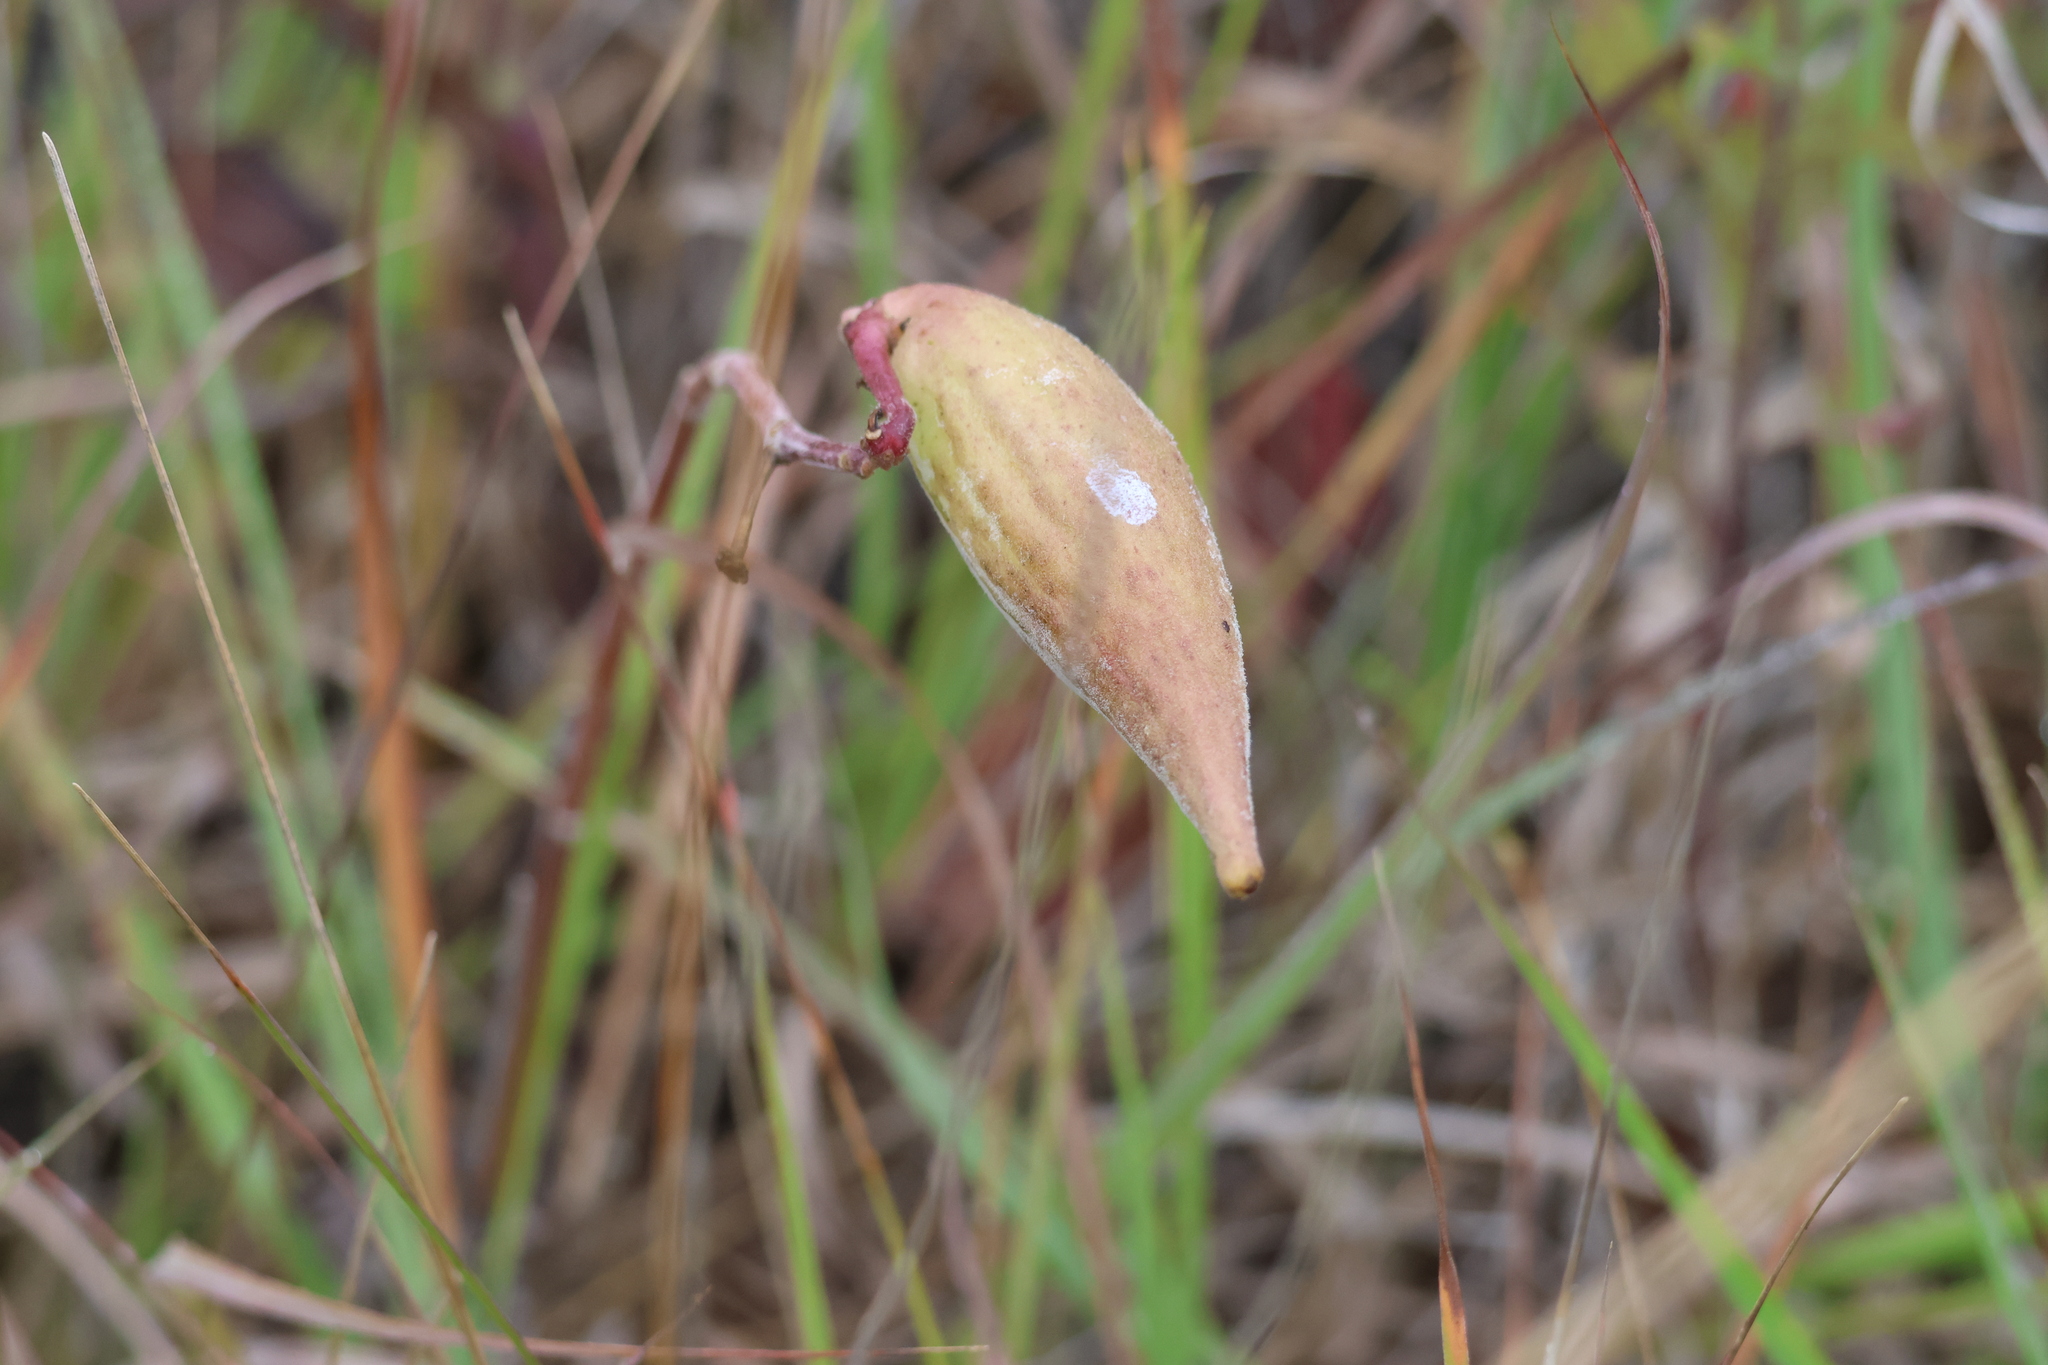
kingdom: Plantae
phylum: Tracheophyta
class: Magnoliopsida
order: Gentianales
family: Apocynaceae
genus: Asclepias
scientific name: Asclepias ovalifolia
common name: Dwarf milkweed
